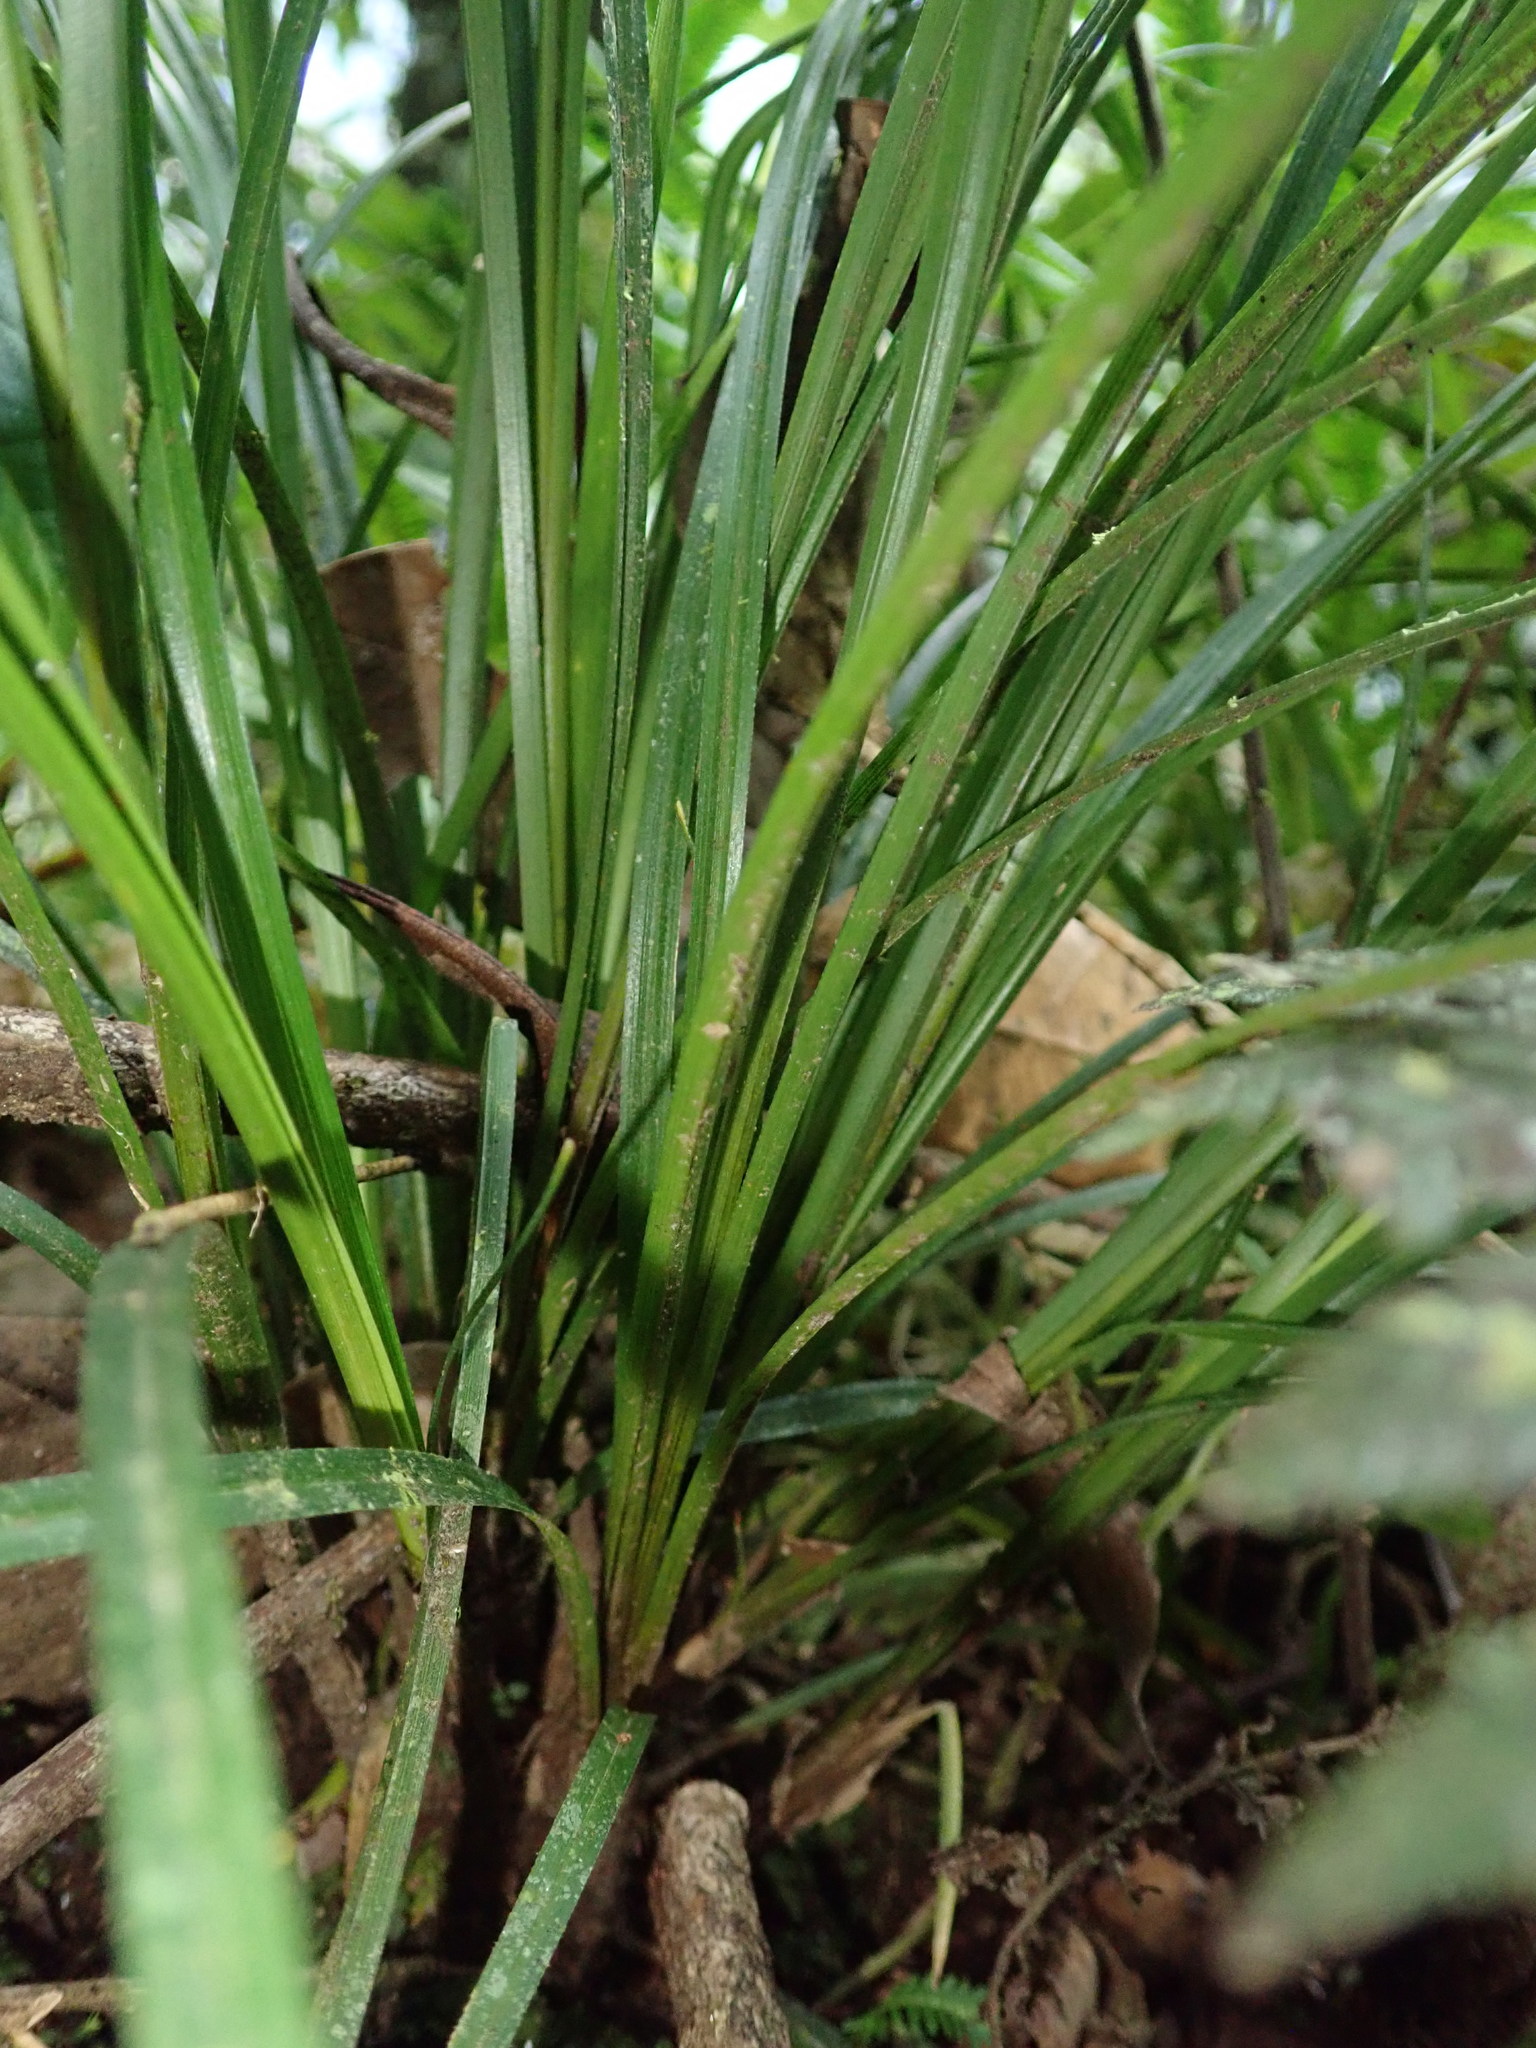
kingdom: Plantae
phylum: Tracheophyta
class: Liliopsida
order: Poales
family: Cyperaceae
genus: Carex
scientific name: Carex hamata
